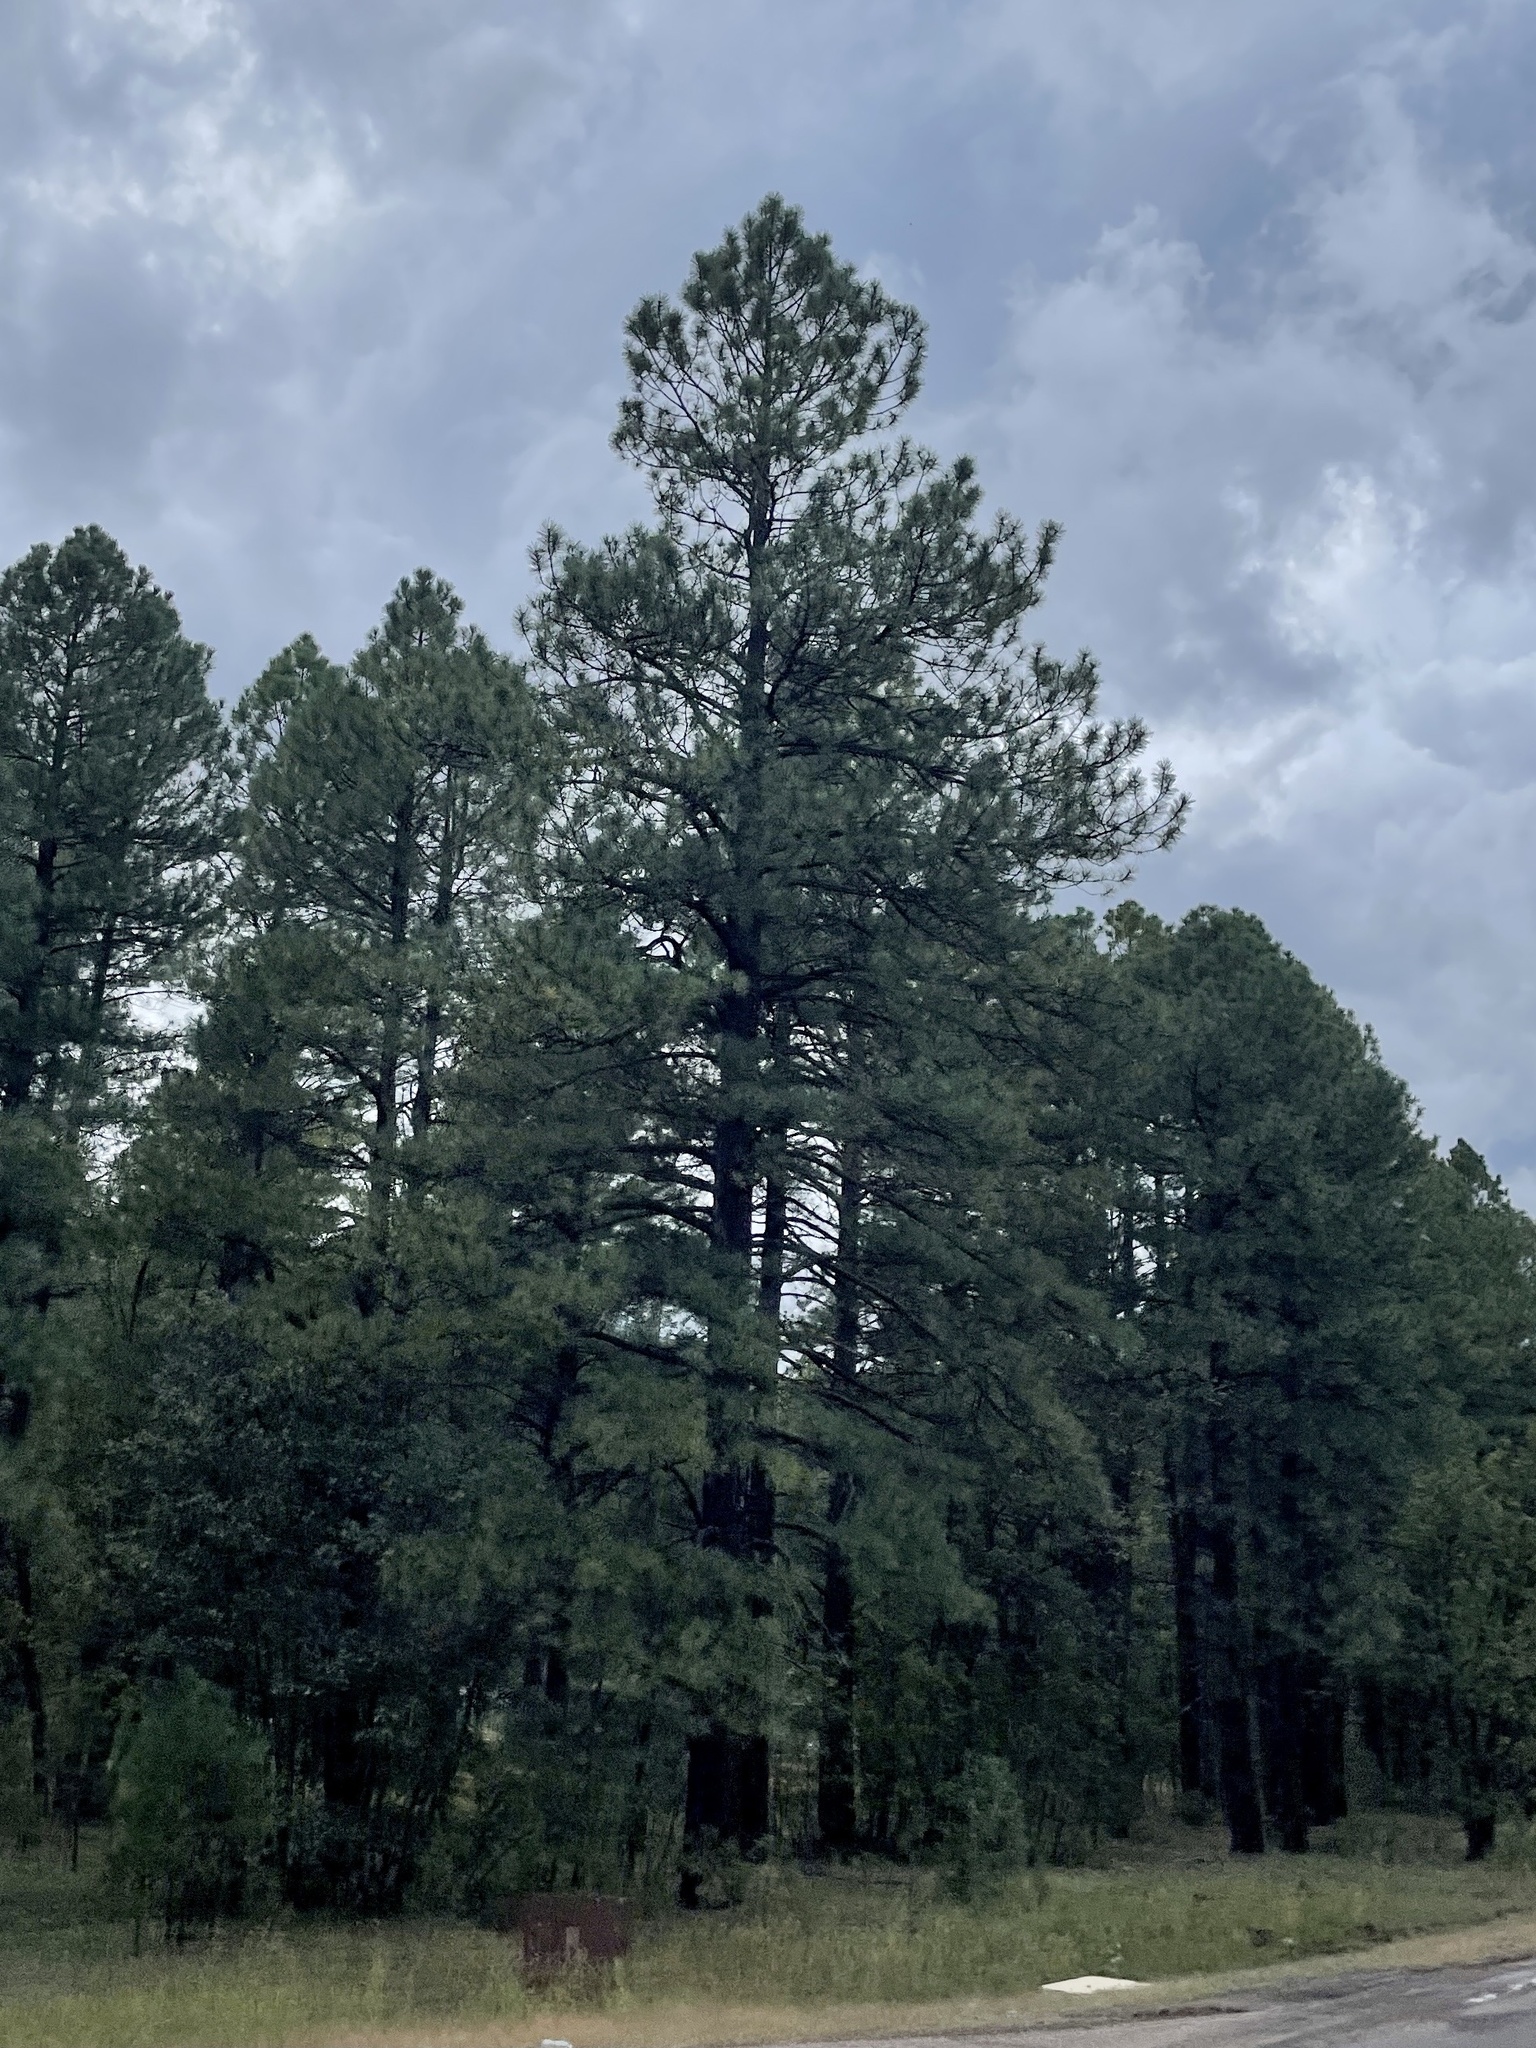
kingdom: Plantae
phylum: Tracheophyta
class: Pinopsida
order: Pinales
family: Pinaceae
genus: Pinus
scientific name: Pinus ponderosa
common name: Western yellow-pine
